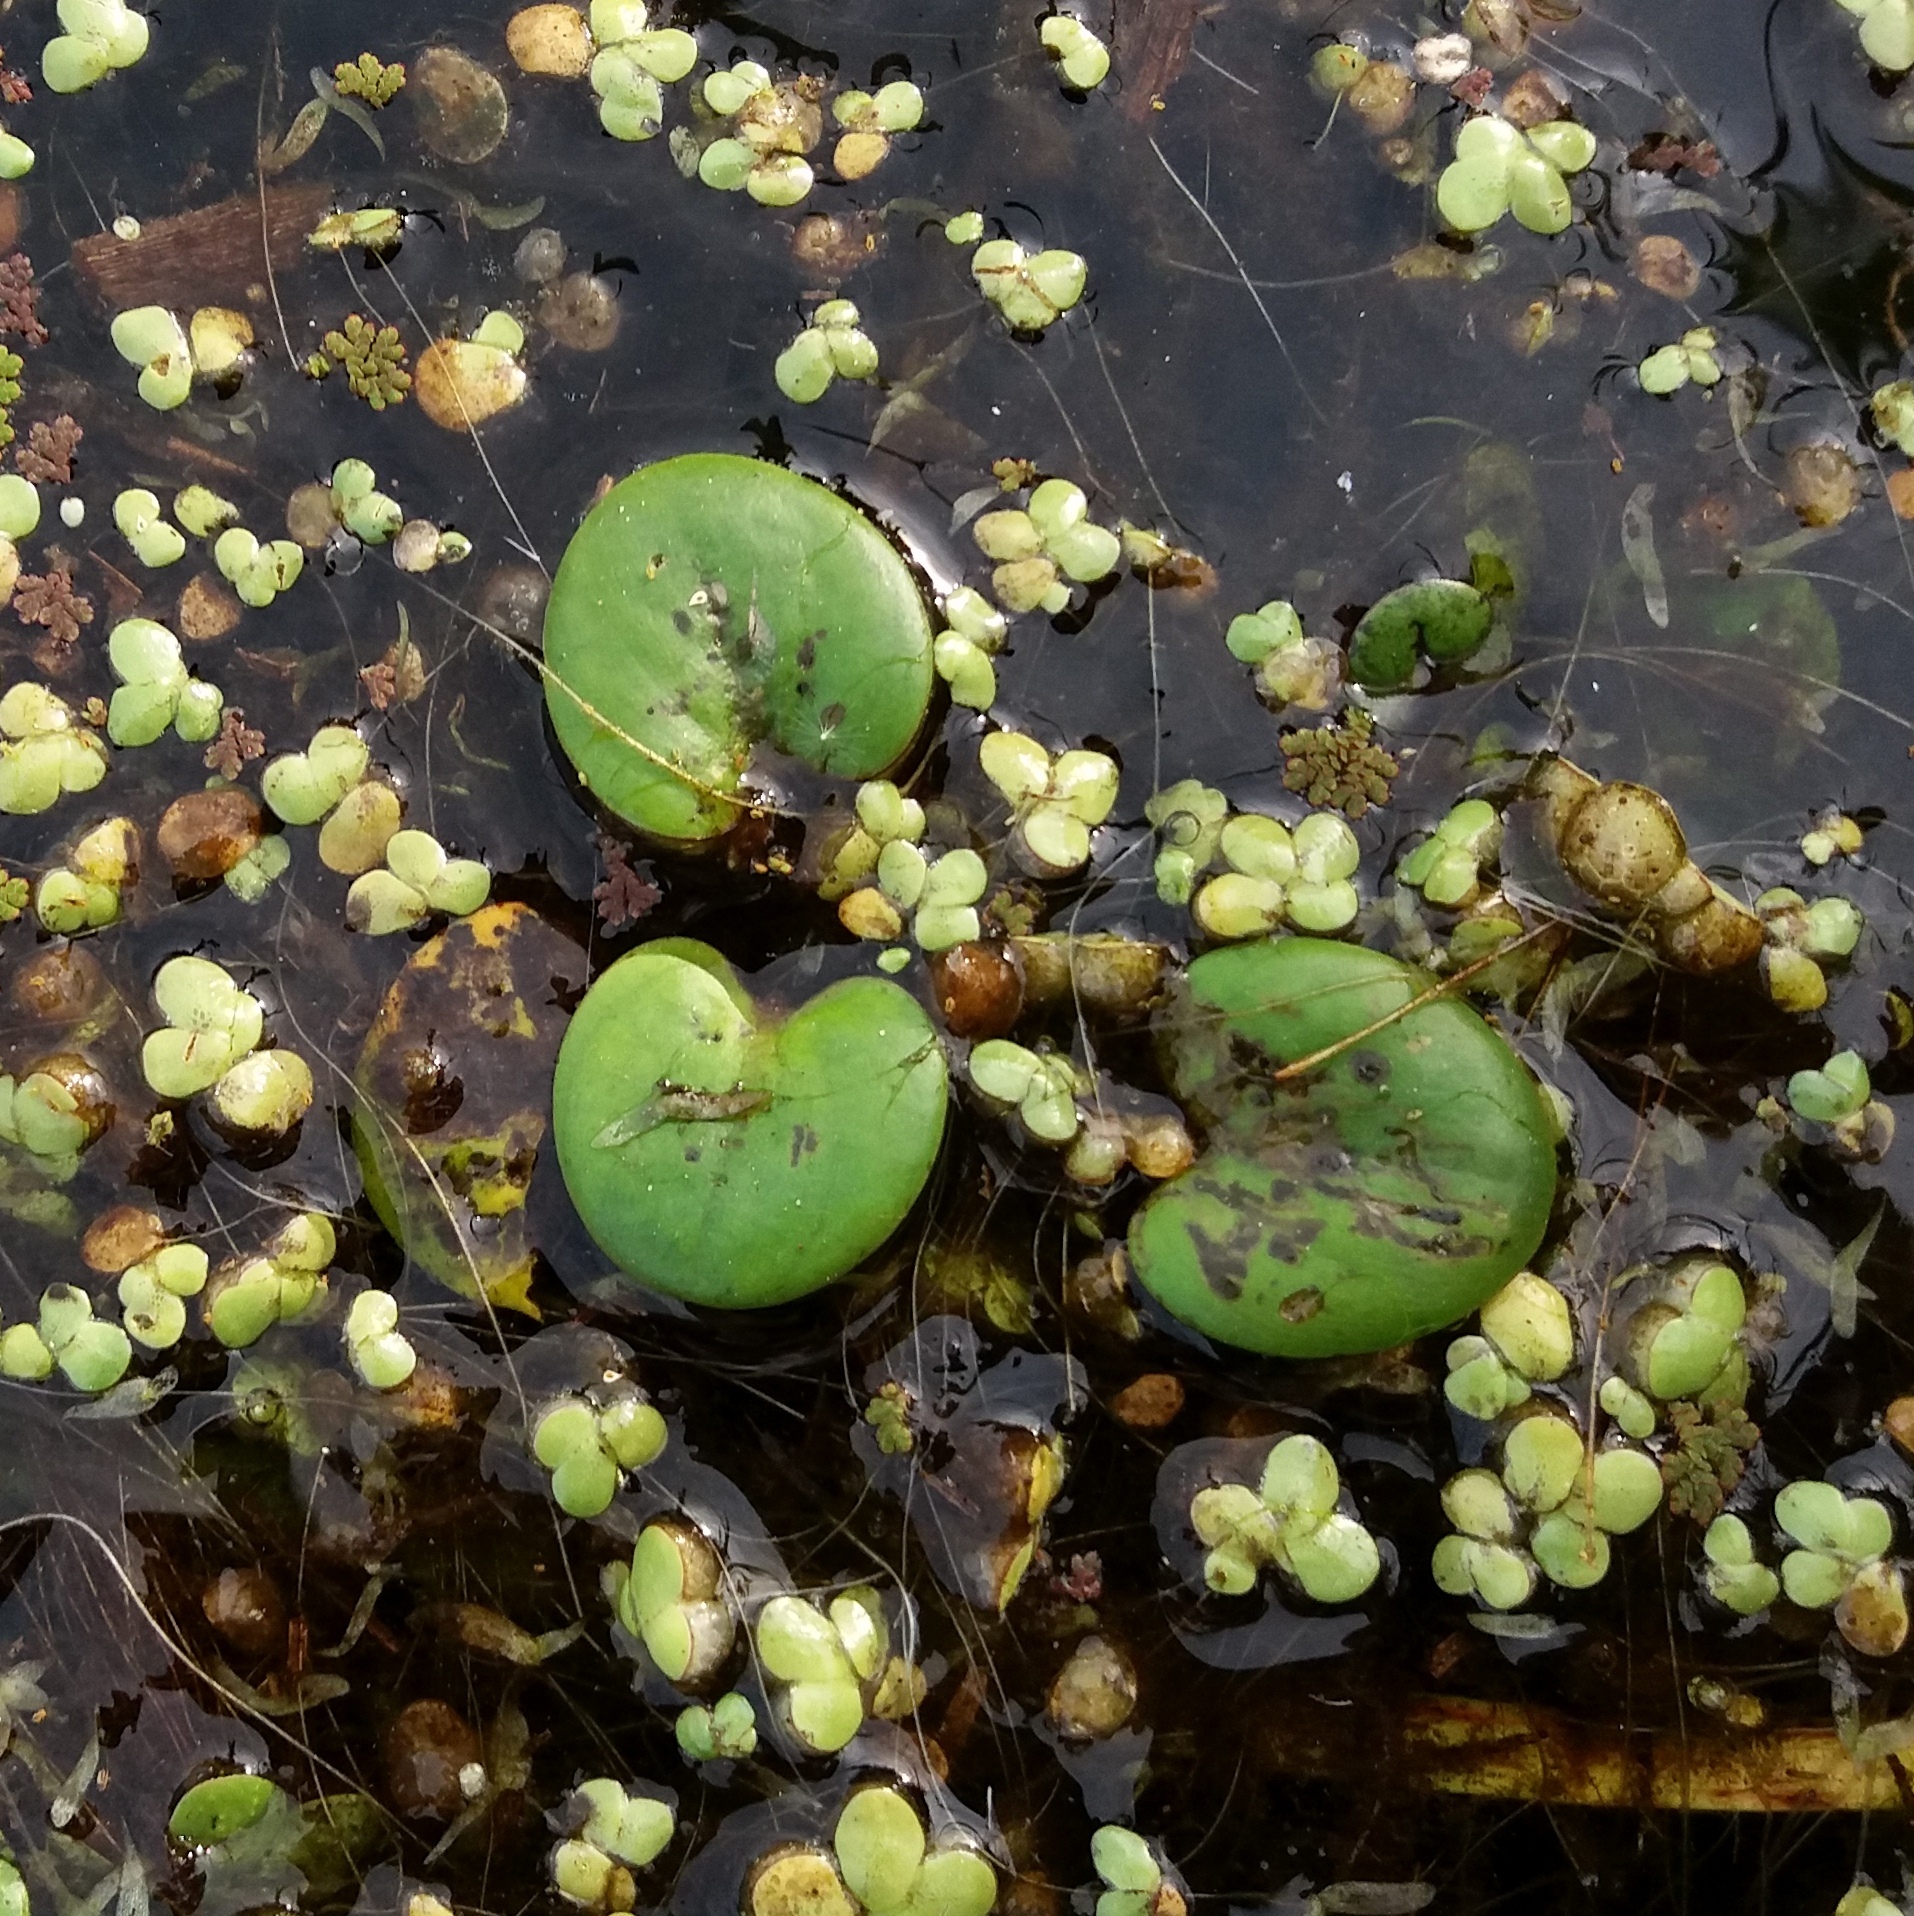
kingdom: Plantae
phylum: Tracheophyta
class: Liliopsida
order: Alismatales
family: Hydrocharitaceae
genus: Hydrocharis
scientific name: Hydrocharis laevigata
